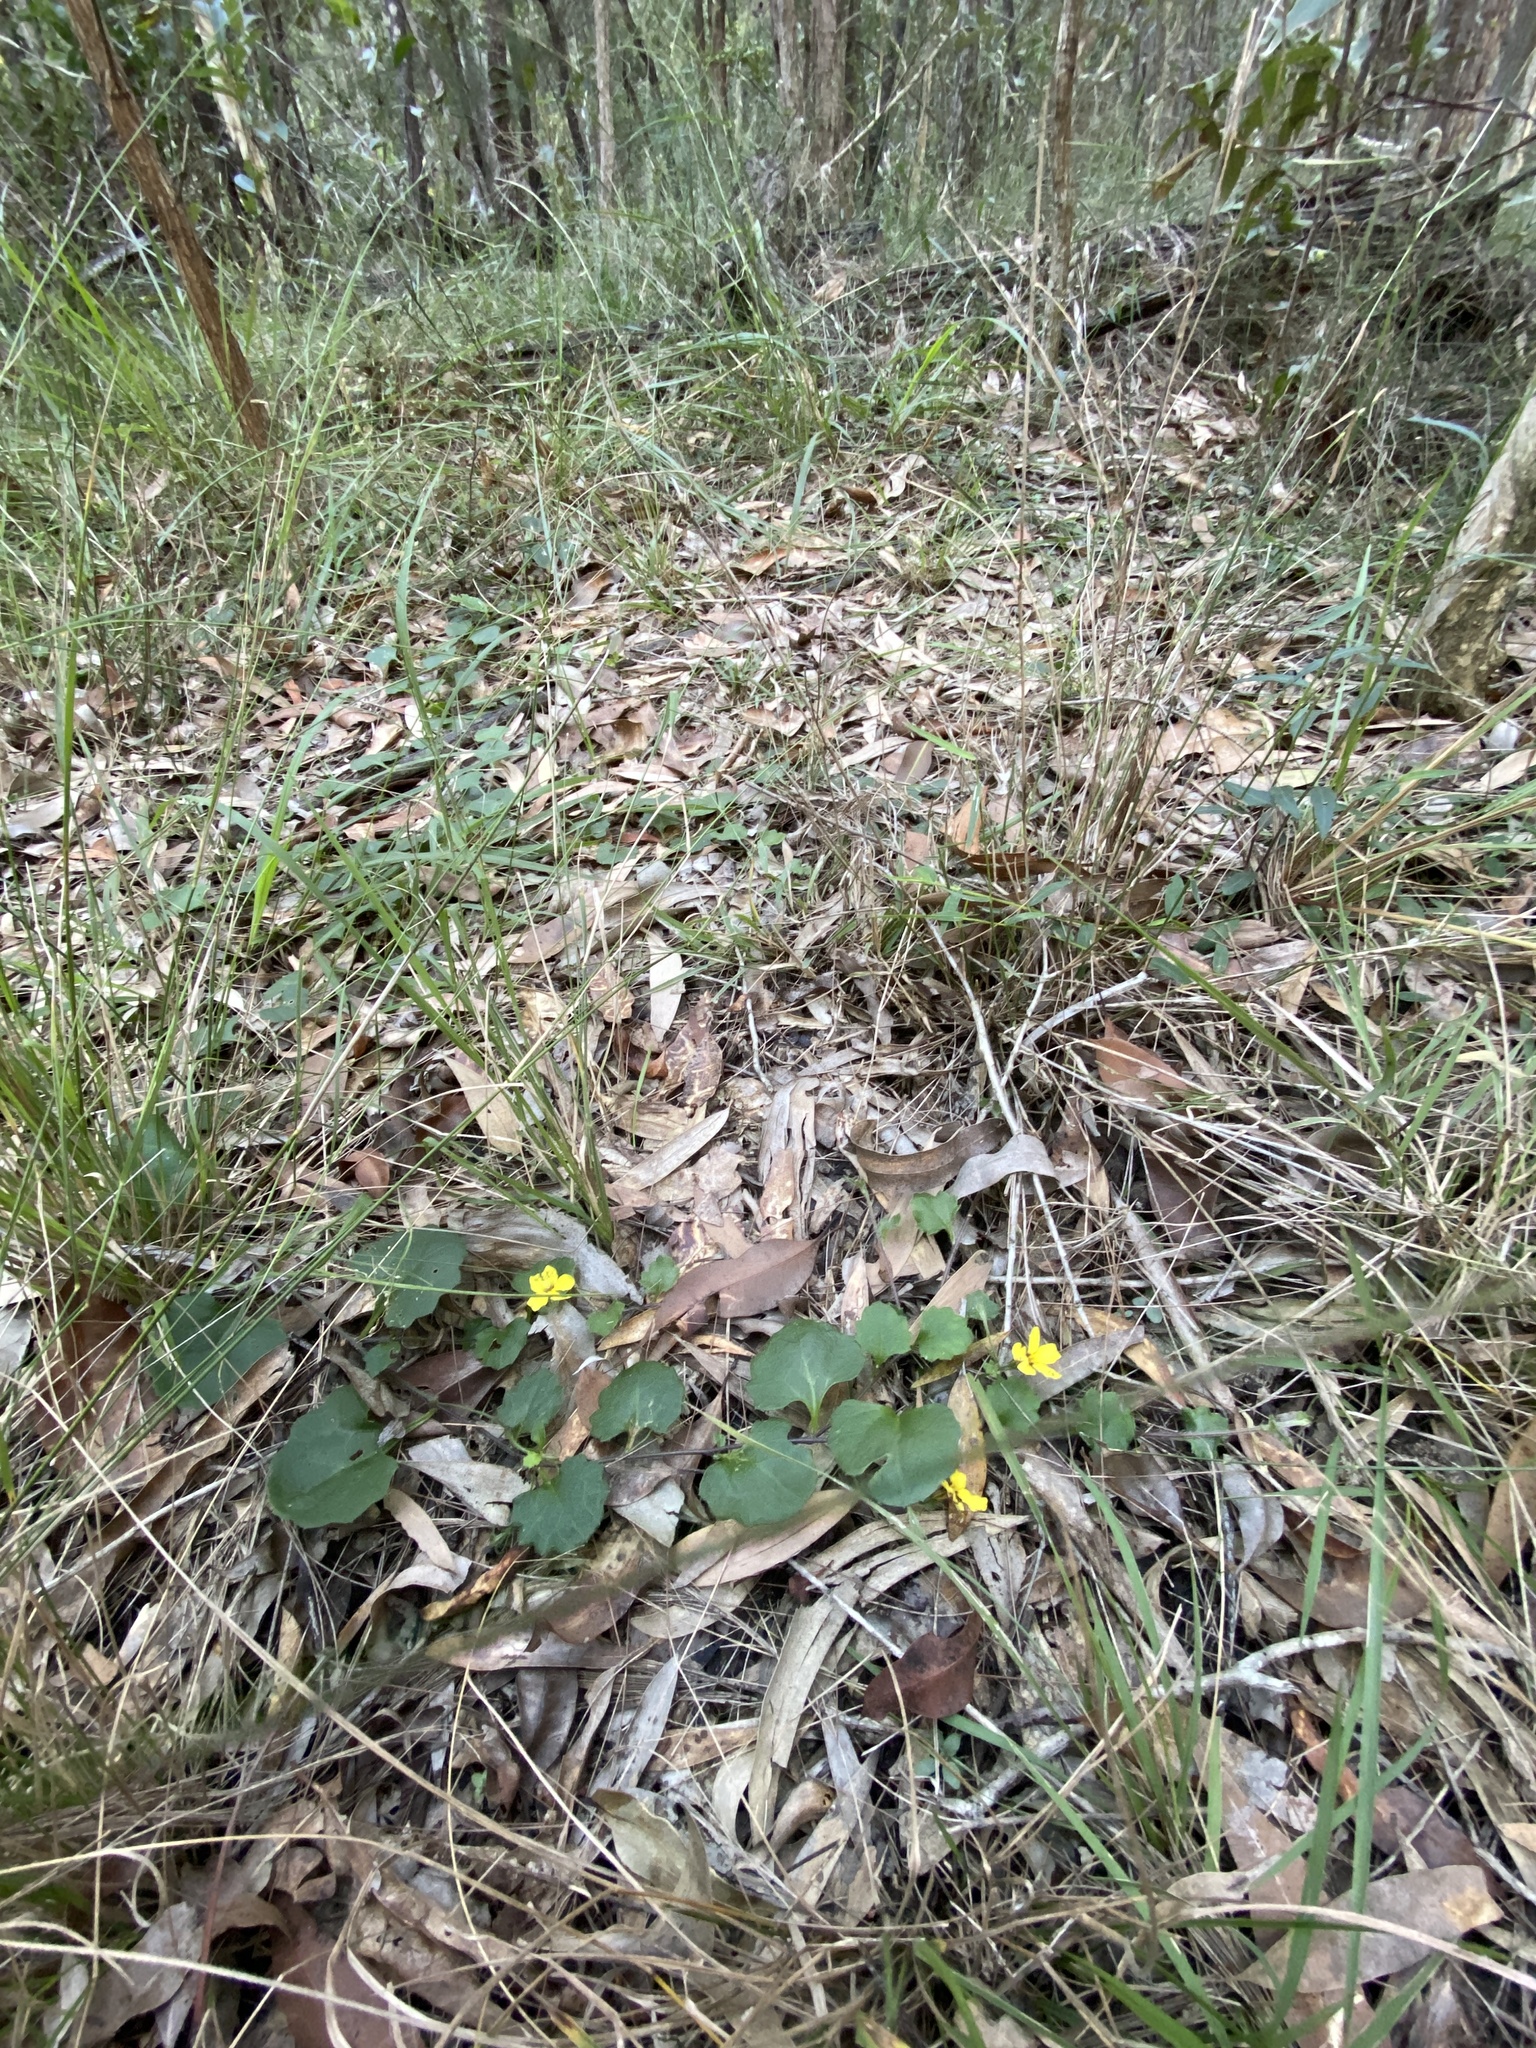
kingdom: Plantae
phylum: Tracheophyta
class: Magnoliopsida
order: Asterales
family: Goodeniaceae
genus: Goodenia
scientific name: Goodenia rotundifolia
